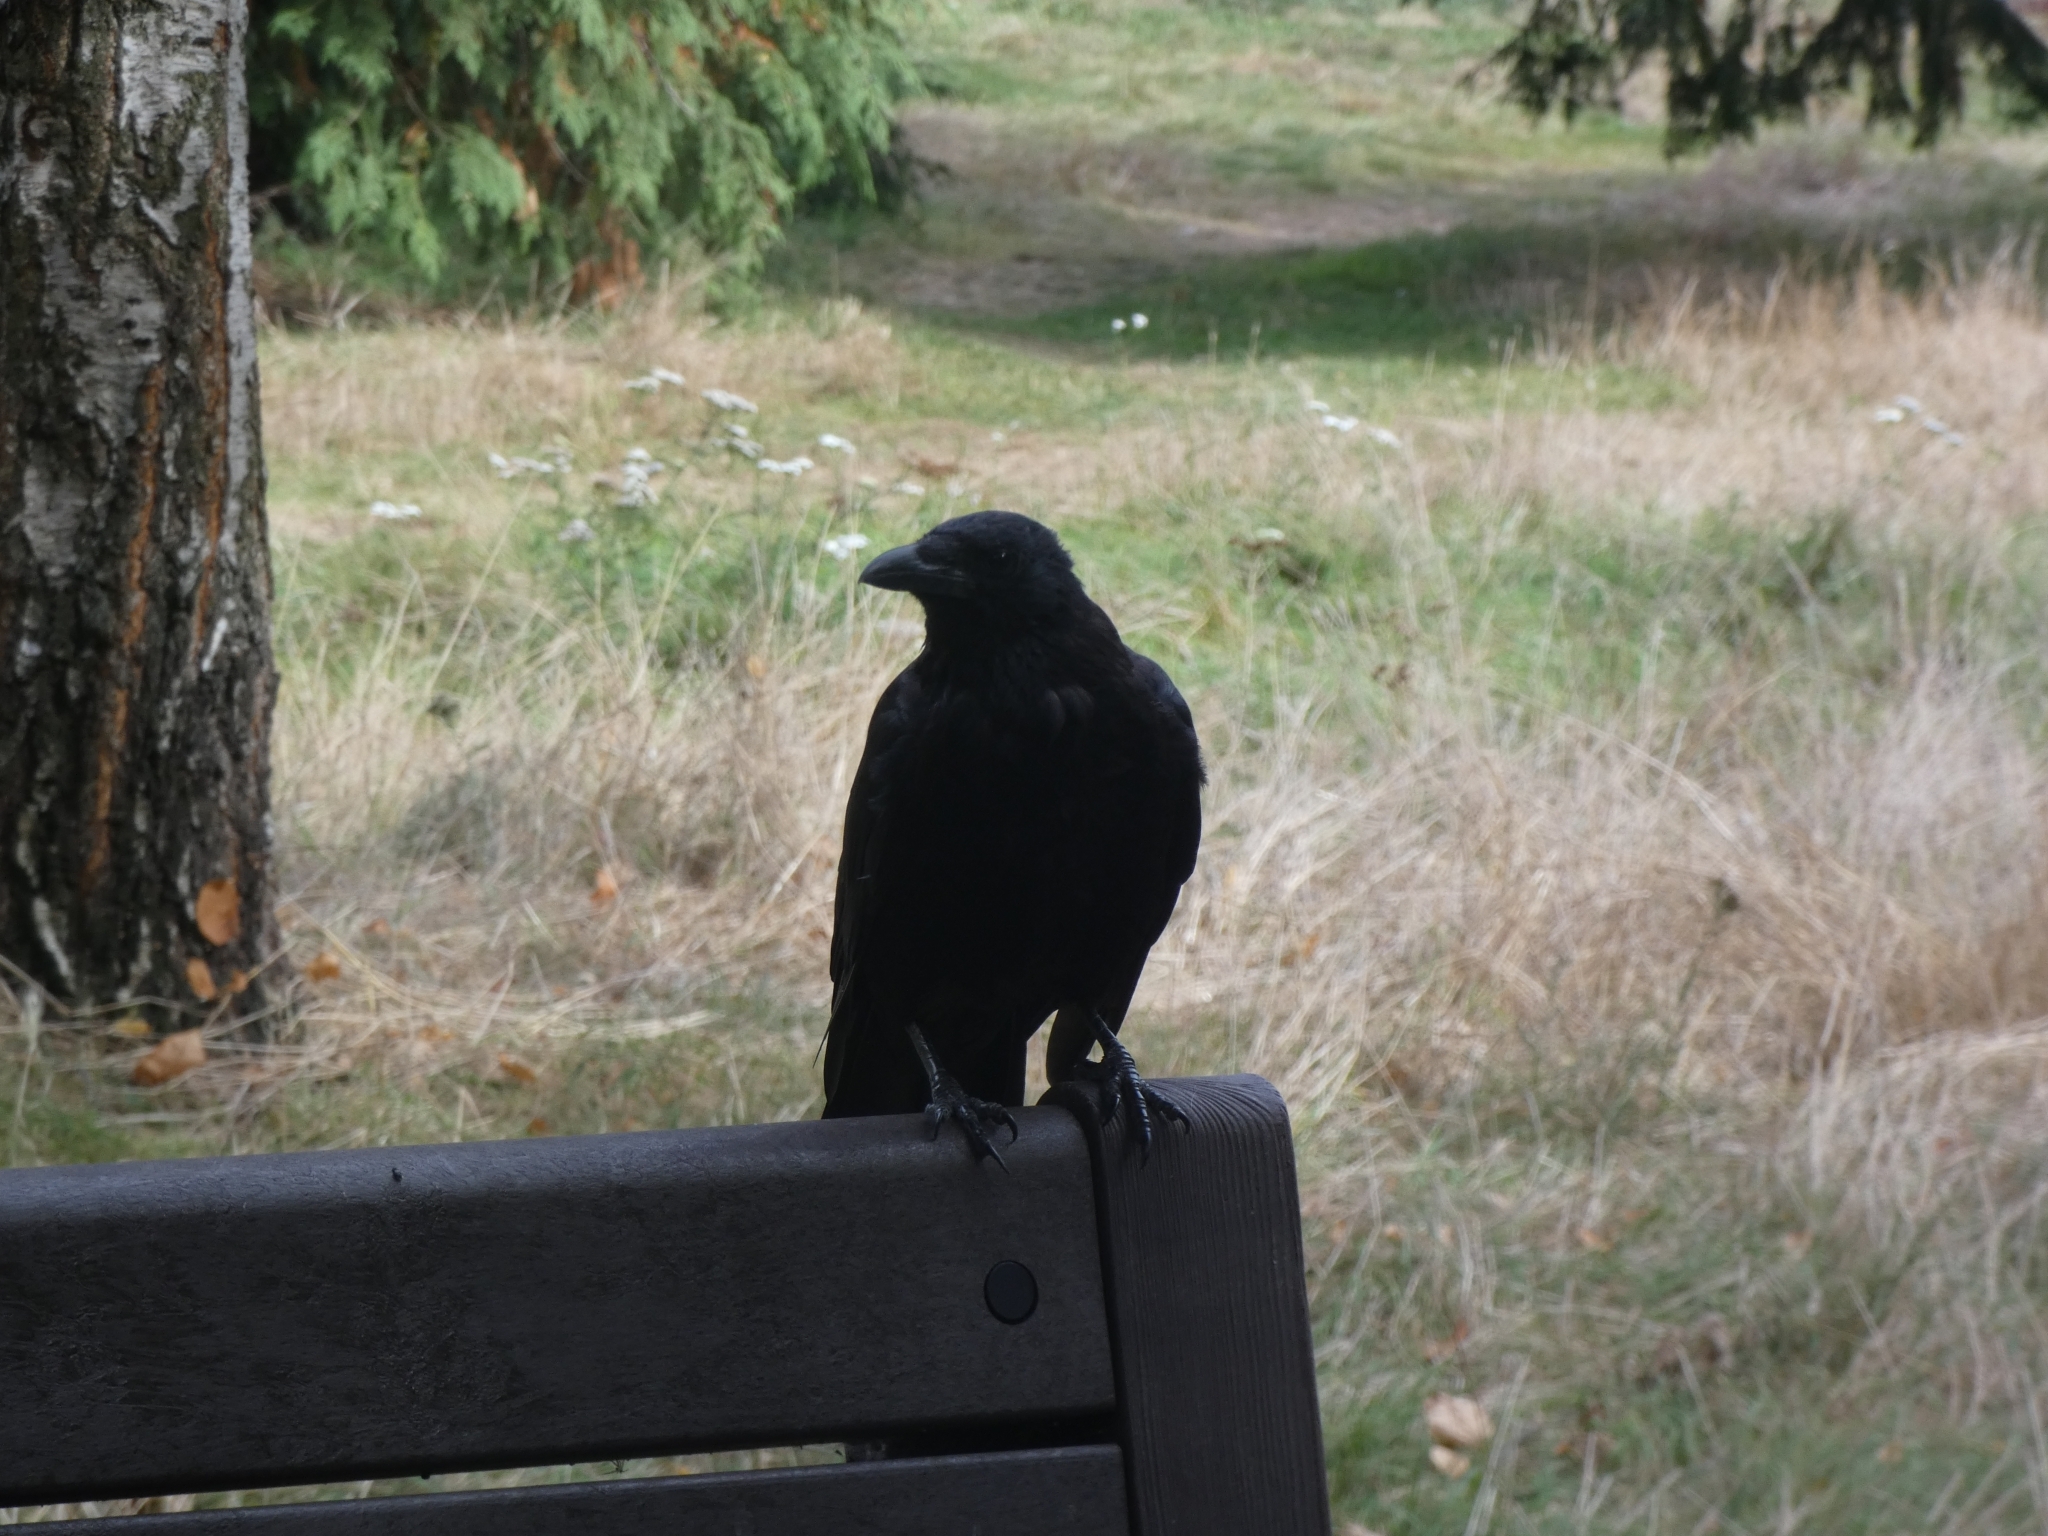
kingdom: Animalia
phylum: Chordata
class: Aves
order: Passeriformes
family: Corvidae
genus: Corvus
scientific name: Corvus corone
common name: Carrion crow
